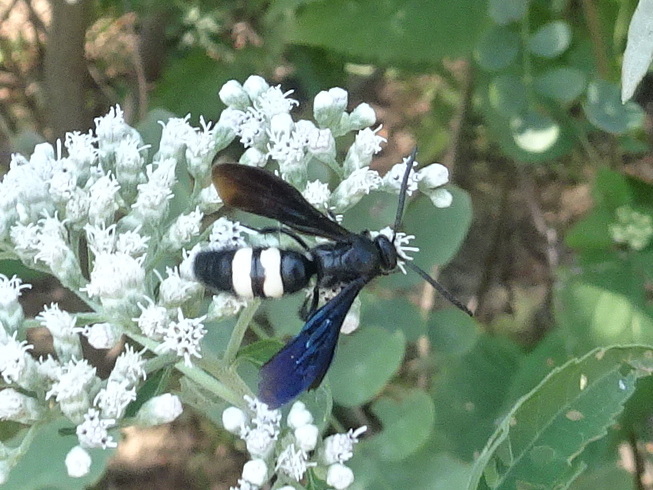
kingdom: Animalia
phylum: Arthropoda
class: Insecta
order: Hymenoptera
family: Scoliidae
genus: Scolia
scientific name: Scolia bicincta
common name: Double-banded scoliid wasp
